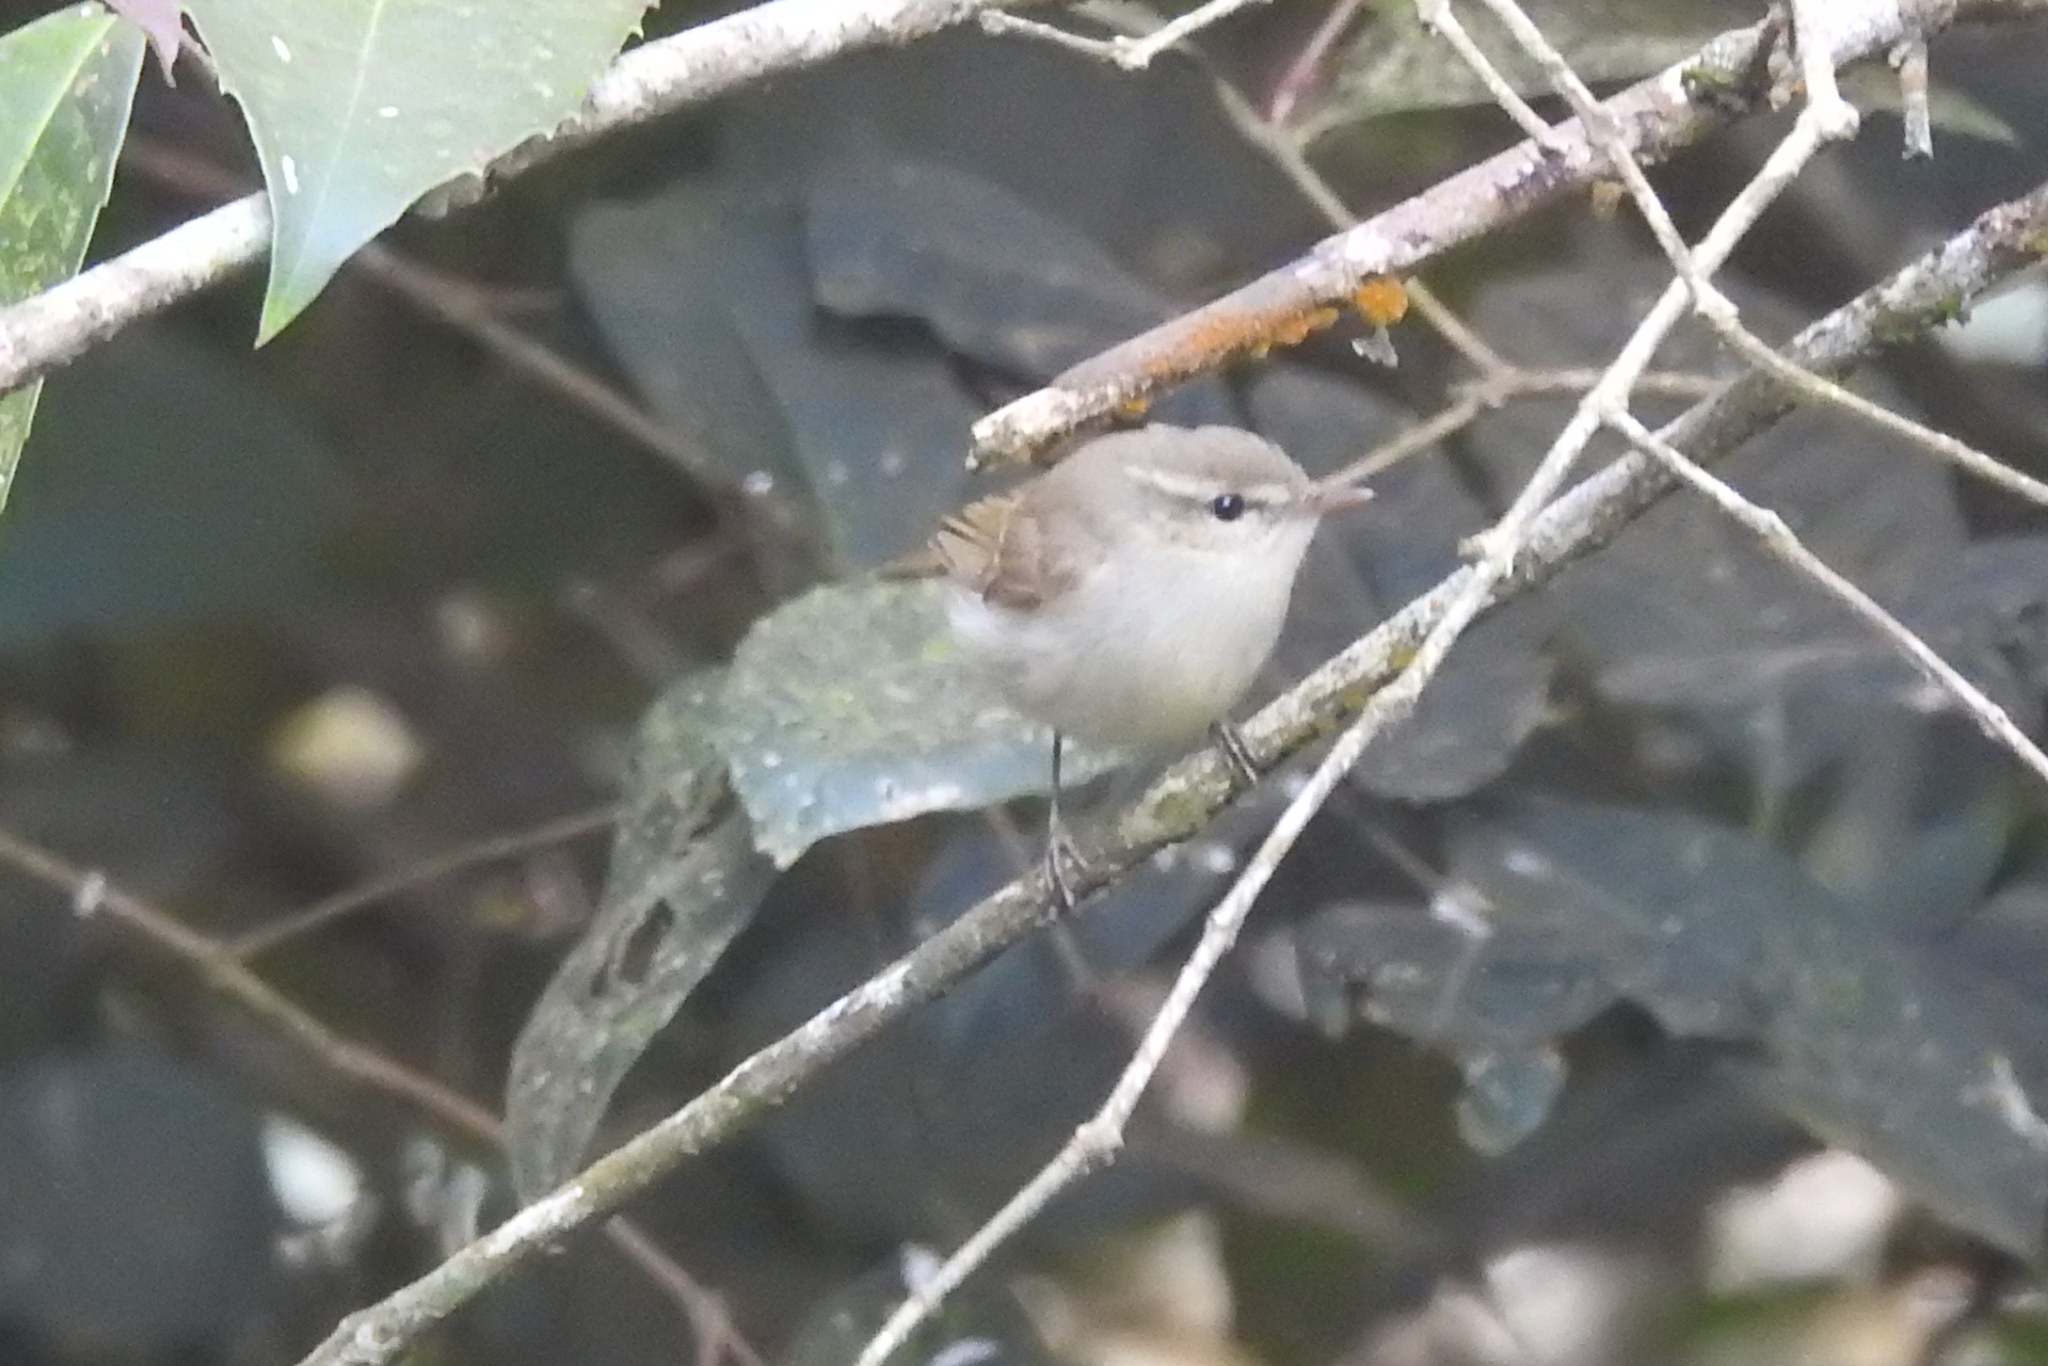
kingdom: Animalia
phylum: Chordata
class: Aves
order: Passeriformes
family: Phylloscopidae
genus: Phylloscopus
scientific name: Phylloscopus trochiloides
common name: Greenish warbler
